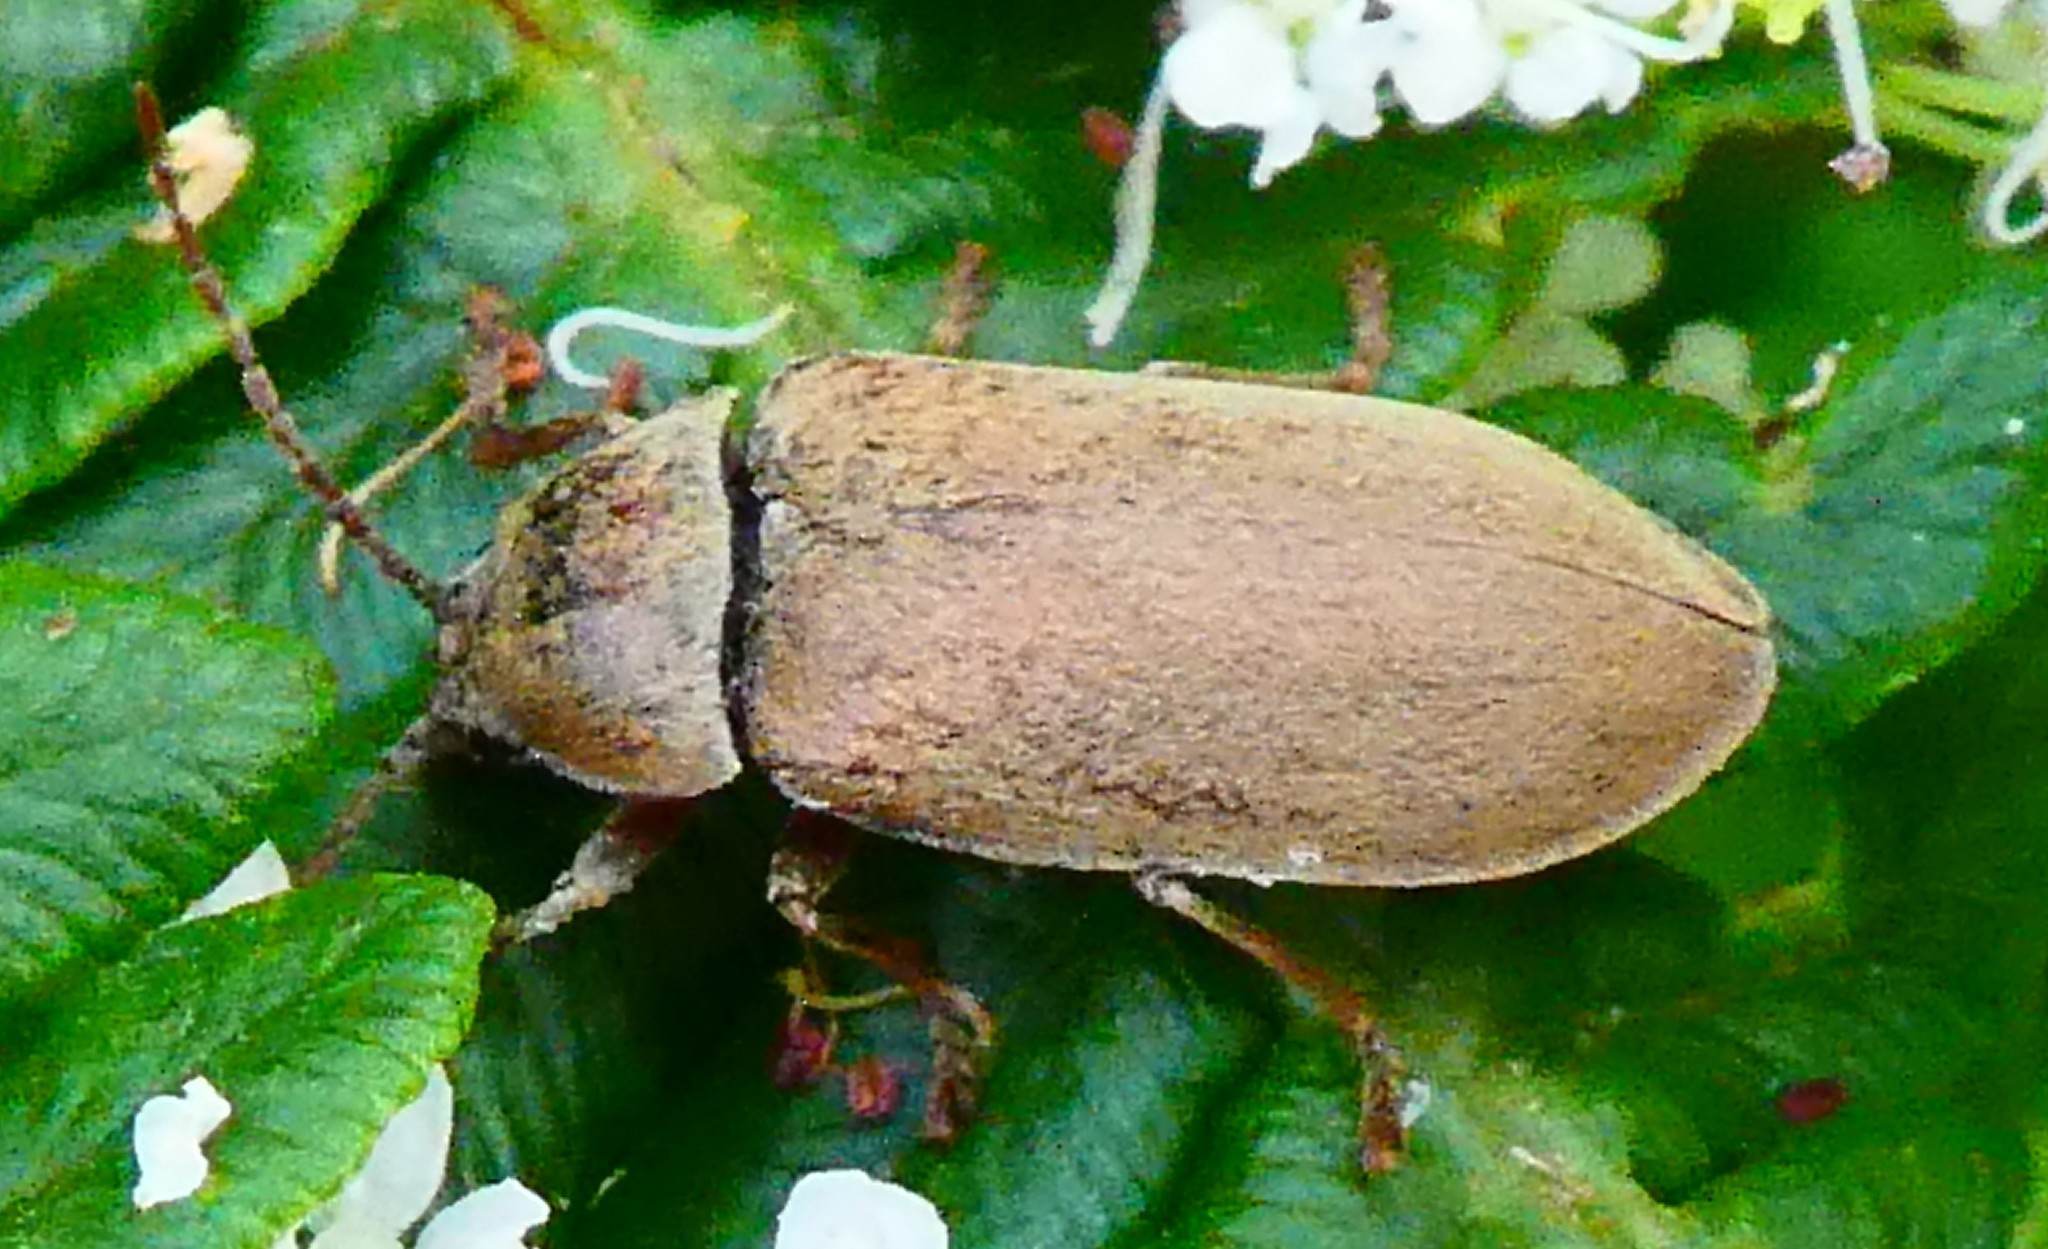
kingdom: Animalia
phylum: Arthropoda
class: Insecta
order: Coleoptera
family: Dascillidae
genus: Dascillus
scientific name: Dascillus cervinus
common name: Orchid beetle
